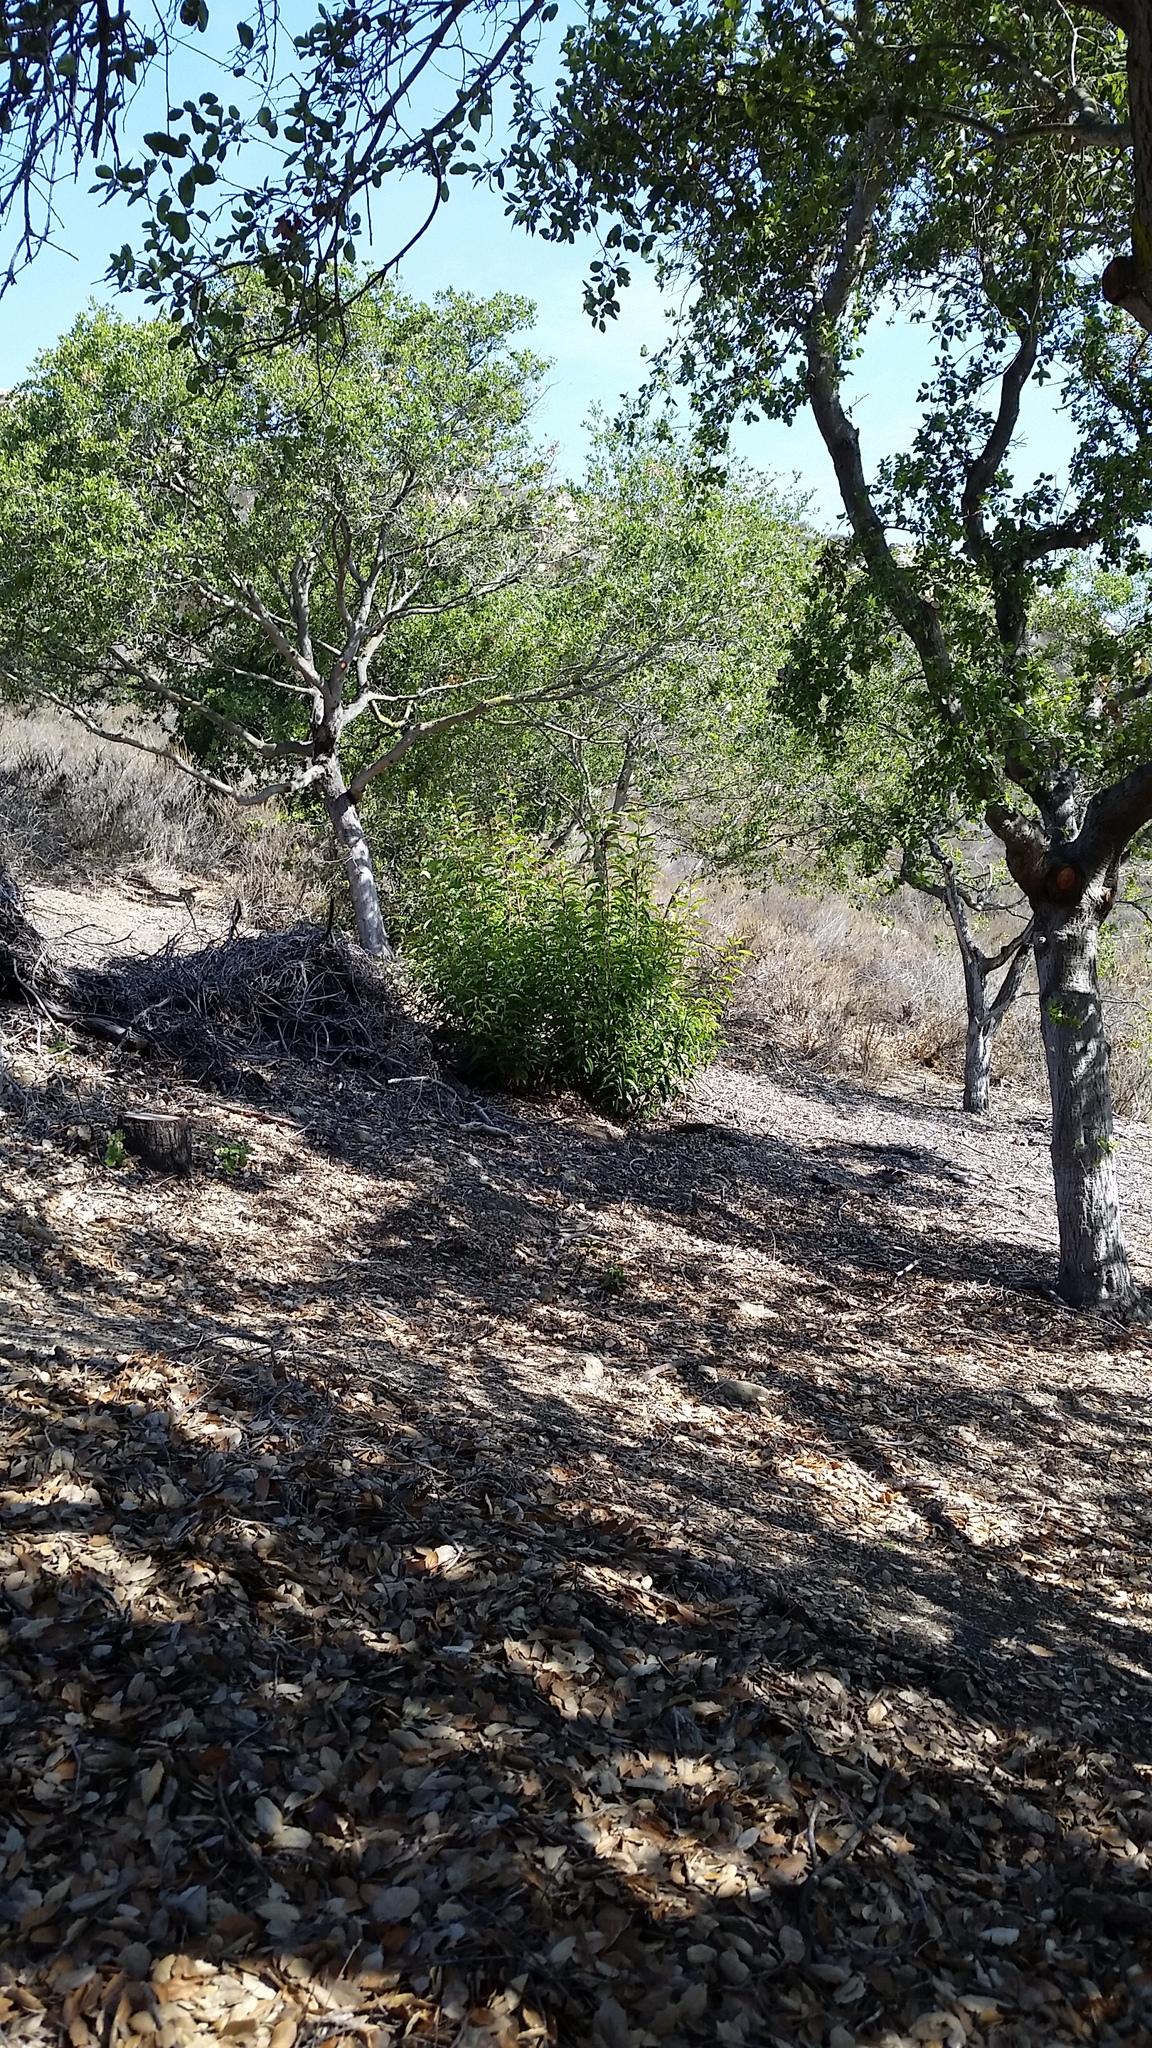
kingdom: Plantae
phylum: Tracheophyta
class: Magnoliopsida
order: Sapindales
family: Anacardiaceae
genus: Malosma
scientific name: Malosma laurina
